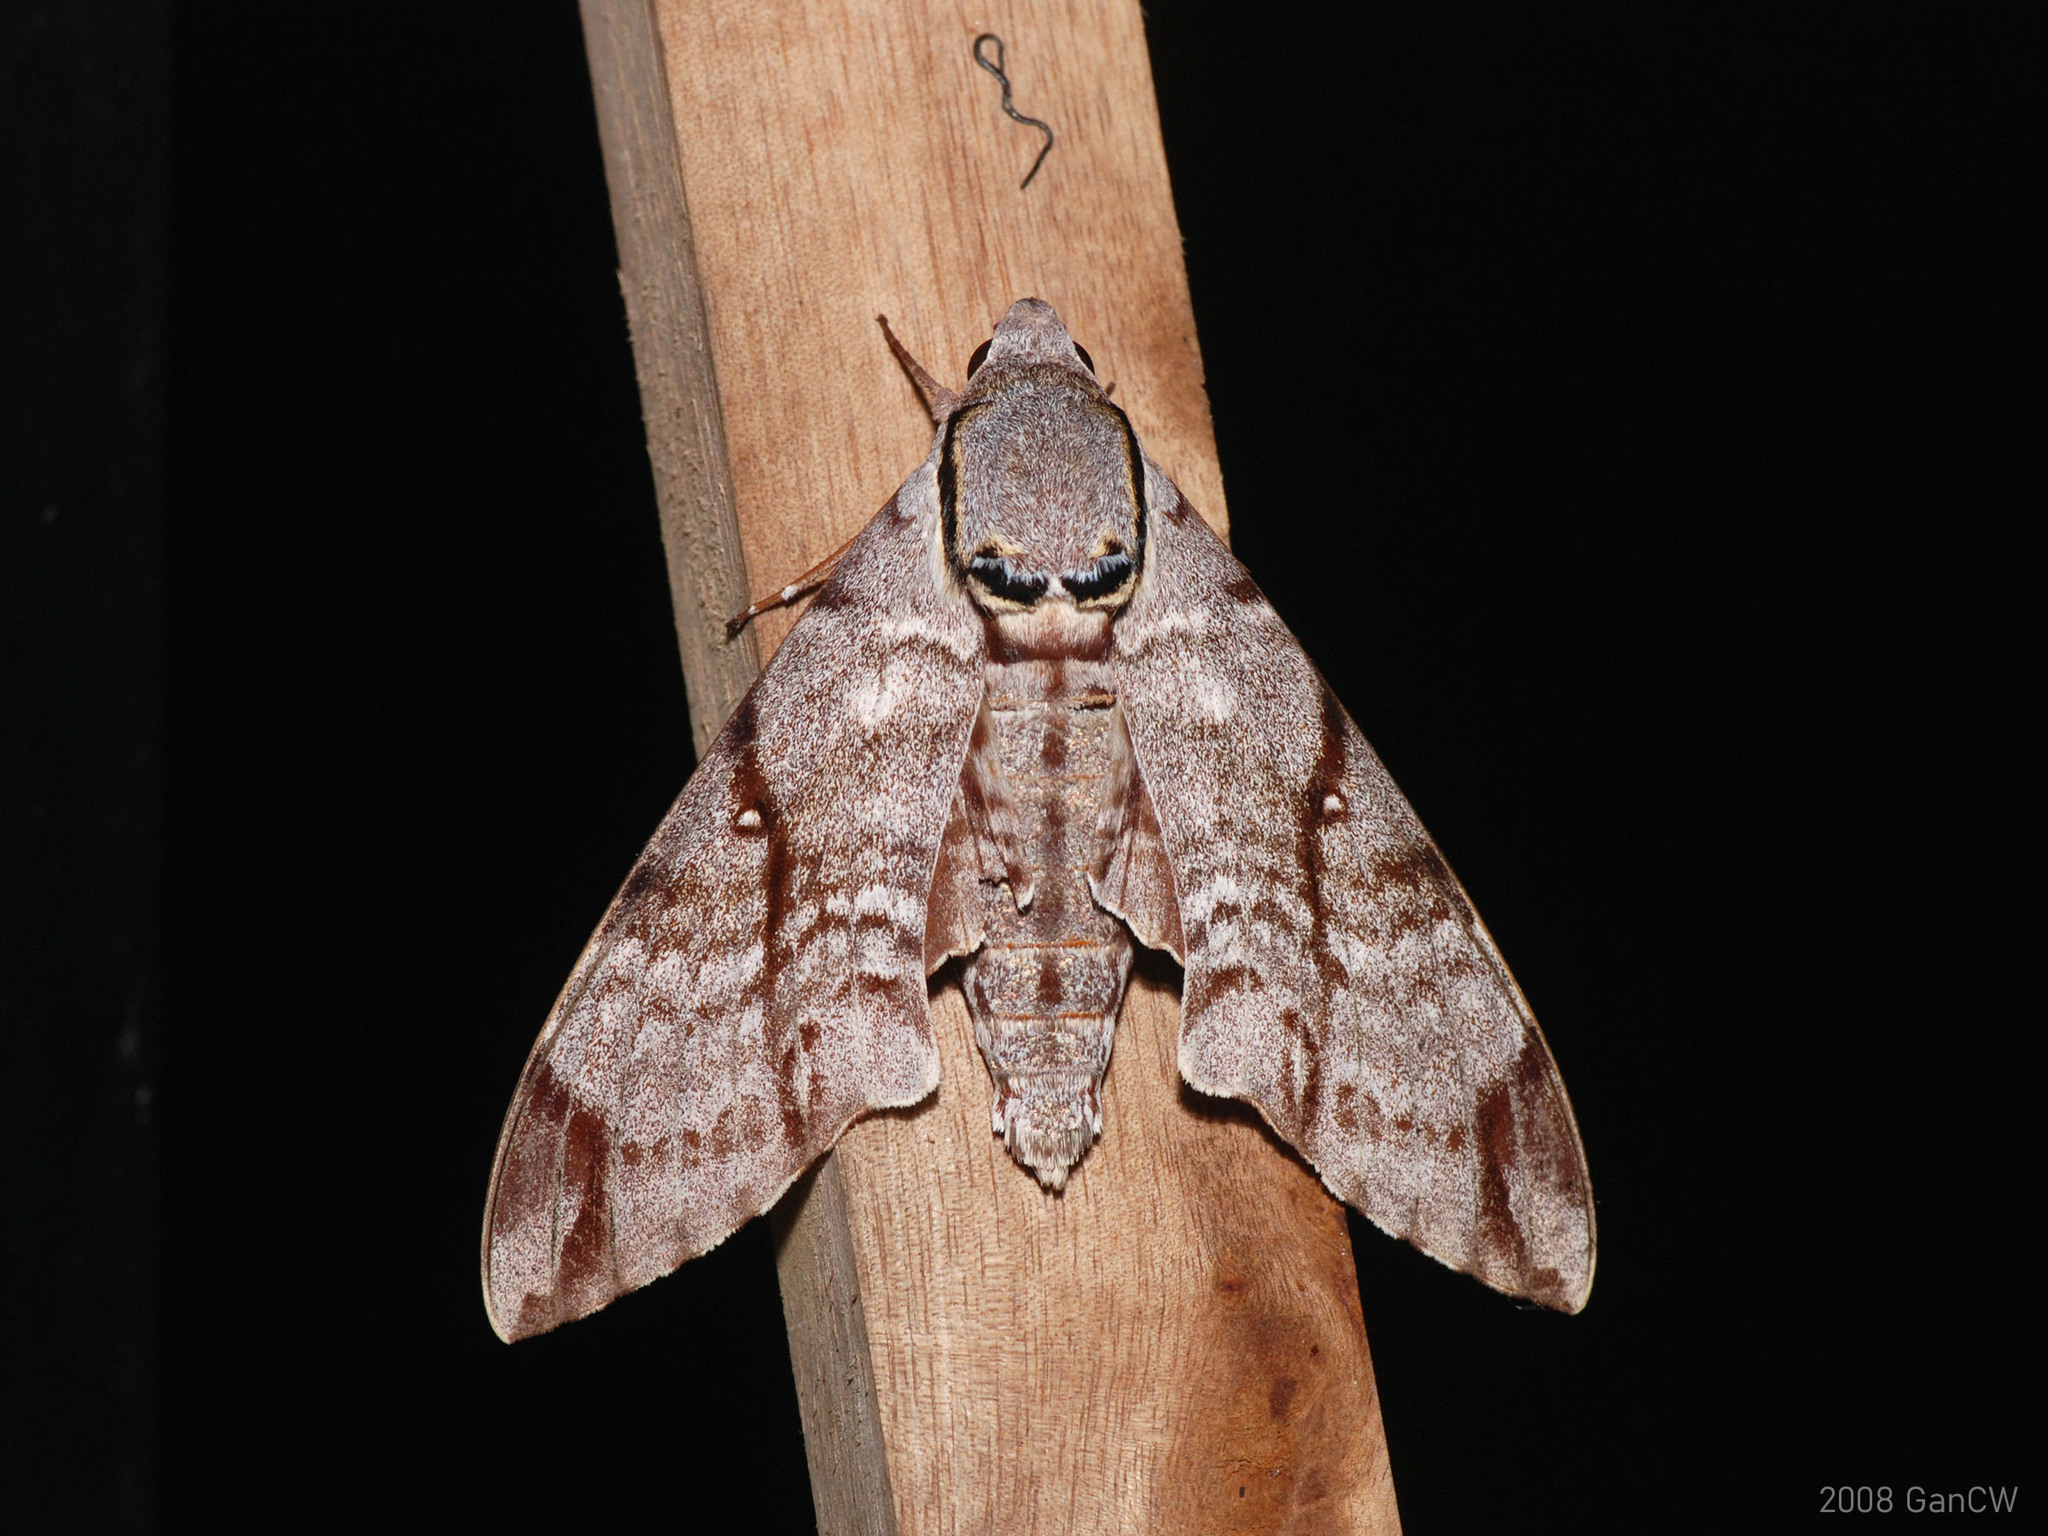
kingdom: Animalia
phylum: Arthropoda
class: Insecta
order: Lepidoptera
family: Sphingidae
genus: Notonagemia
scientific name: Notonagemia analis
